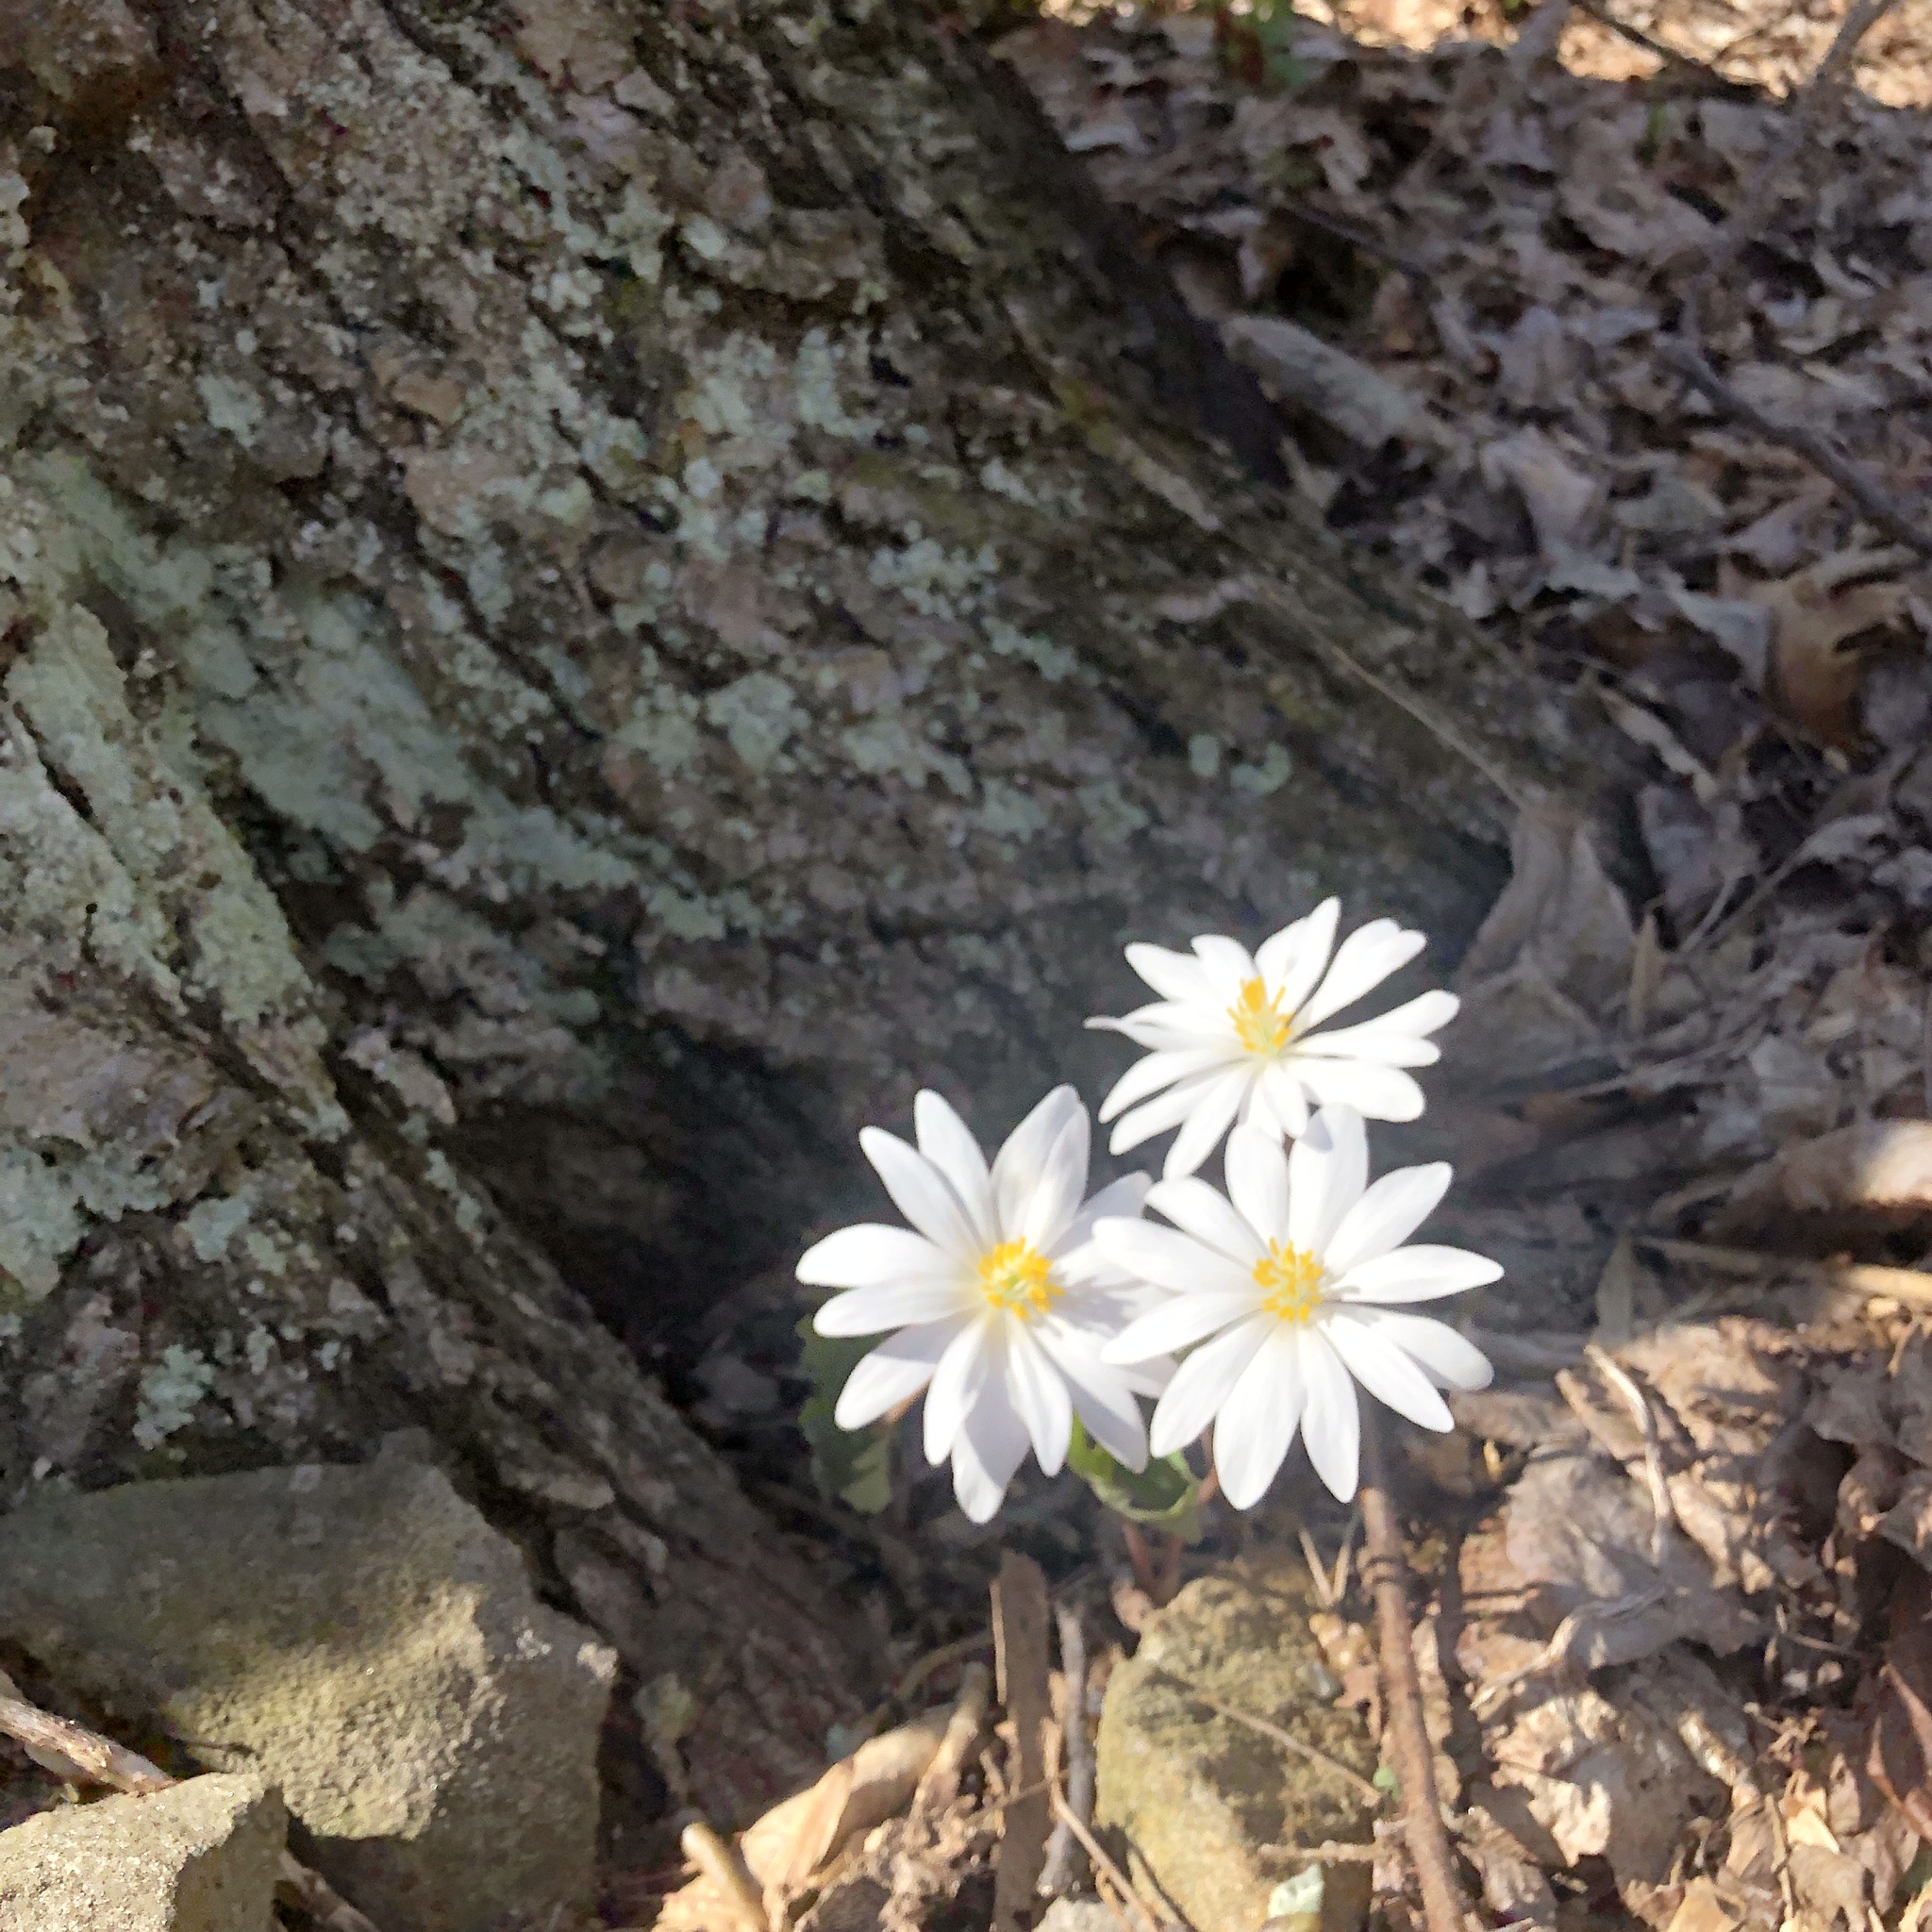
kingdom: Plantae
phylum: Tracheophyta
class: Magnoliopsida
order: Ranunculales
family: Papaveraceae
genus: Sanguinaria
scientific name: Sanguinaria canadensis
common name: Bloodroot
